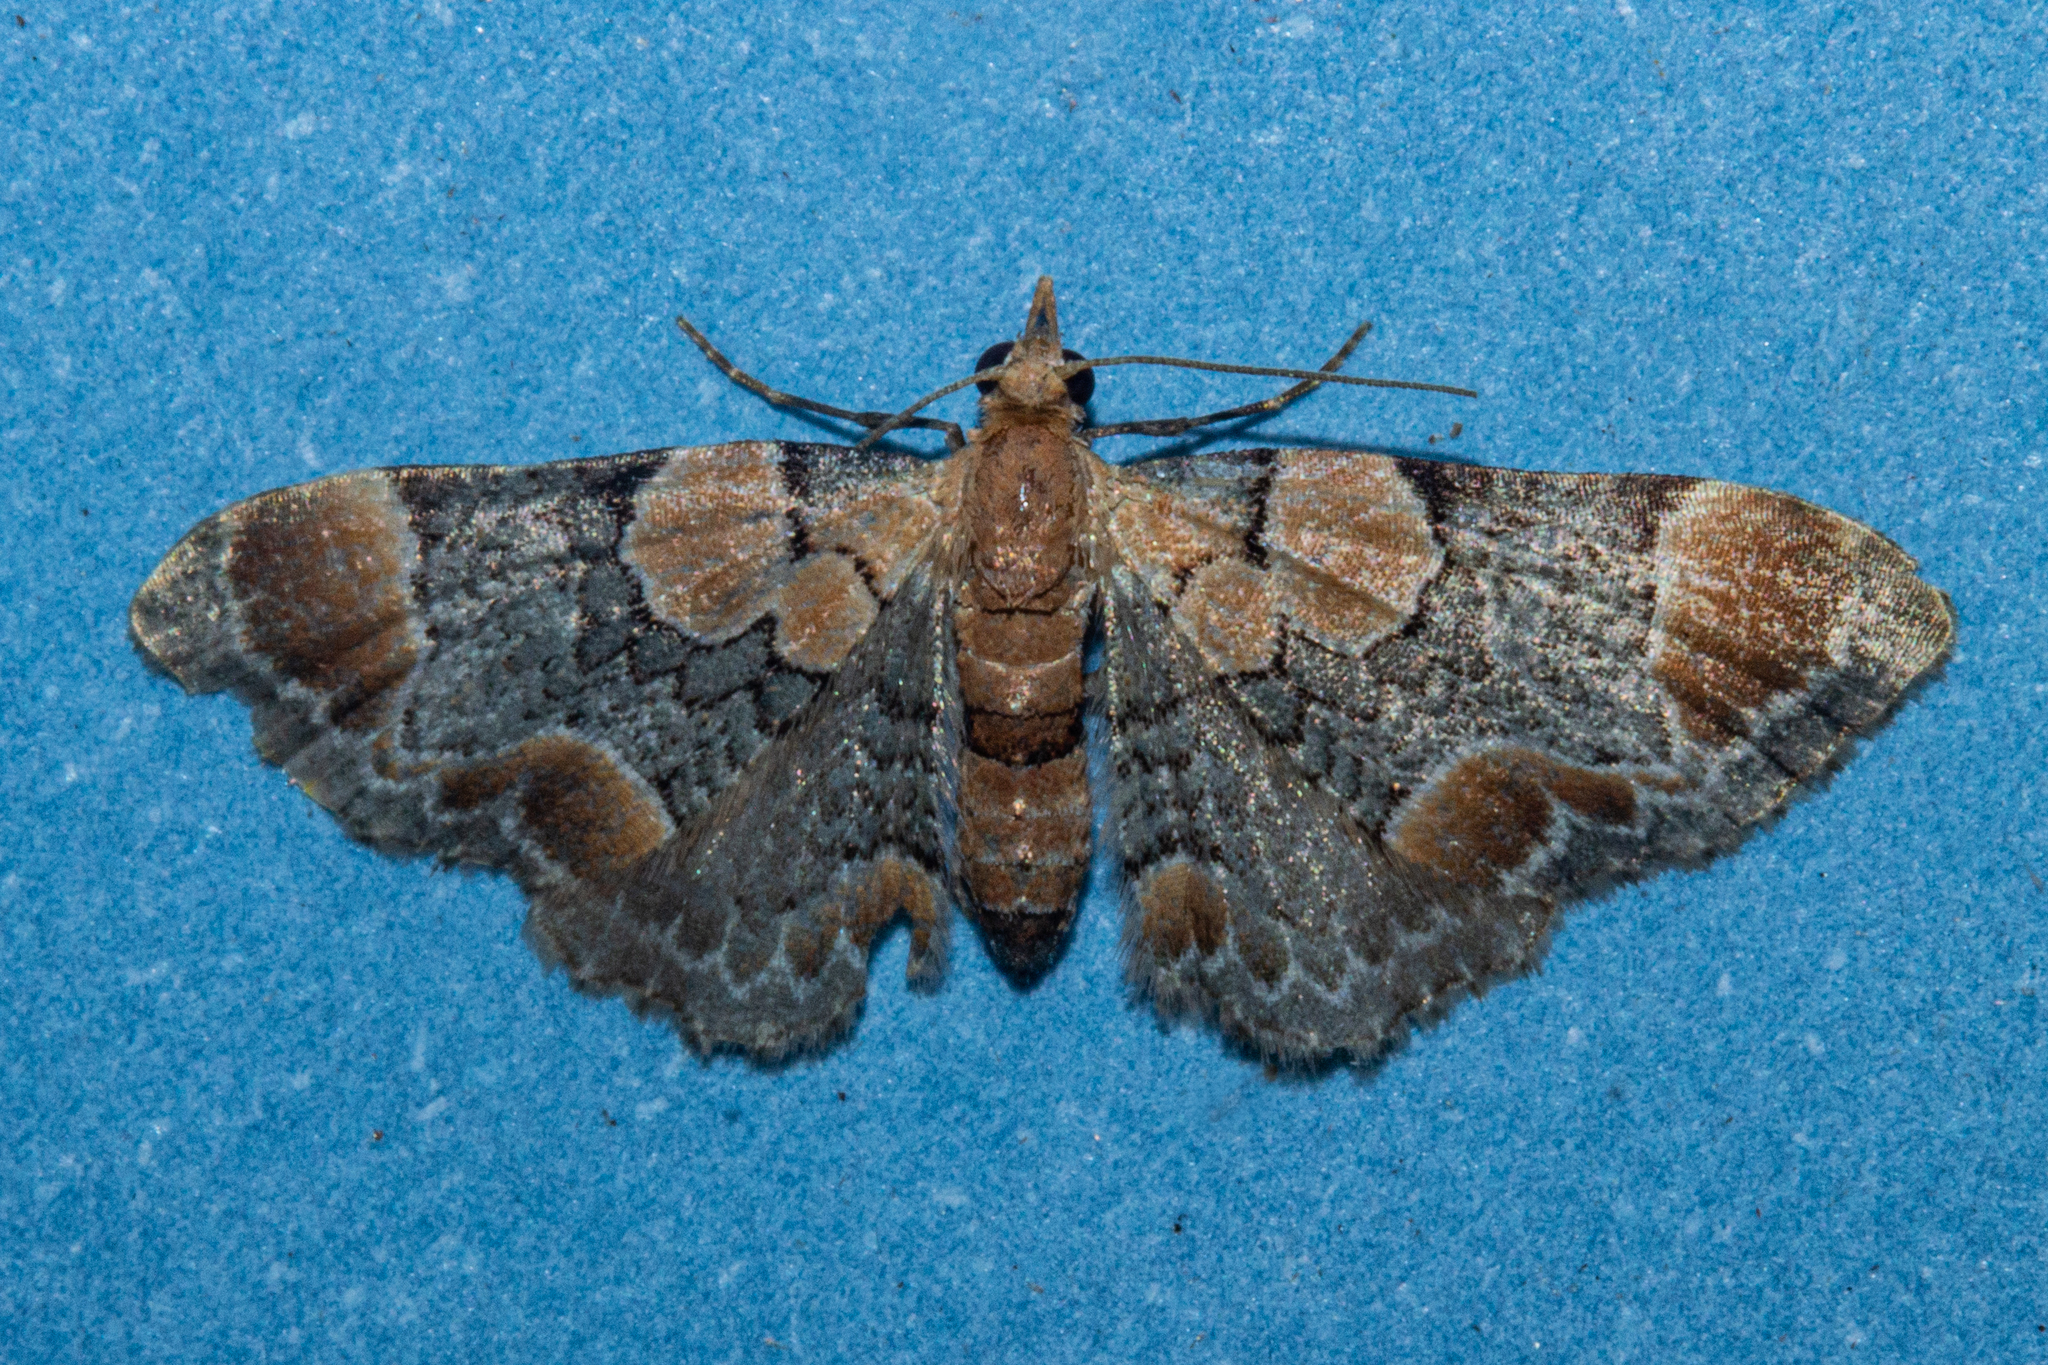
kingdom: Animalia
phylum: Arthropoda
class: Insecta
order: Lepidoptera
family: Geometridae
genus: Chloroclystis
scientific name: Chloroclystis
